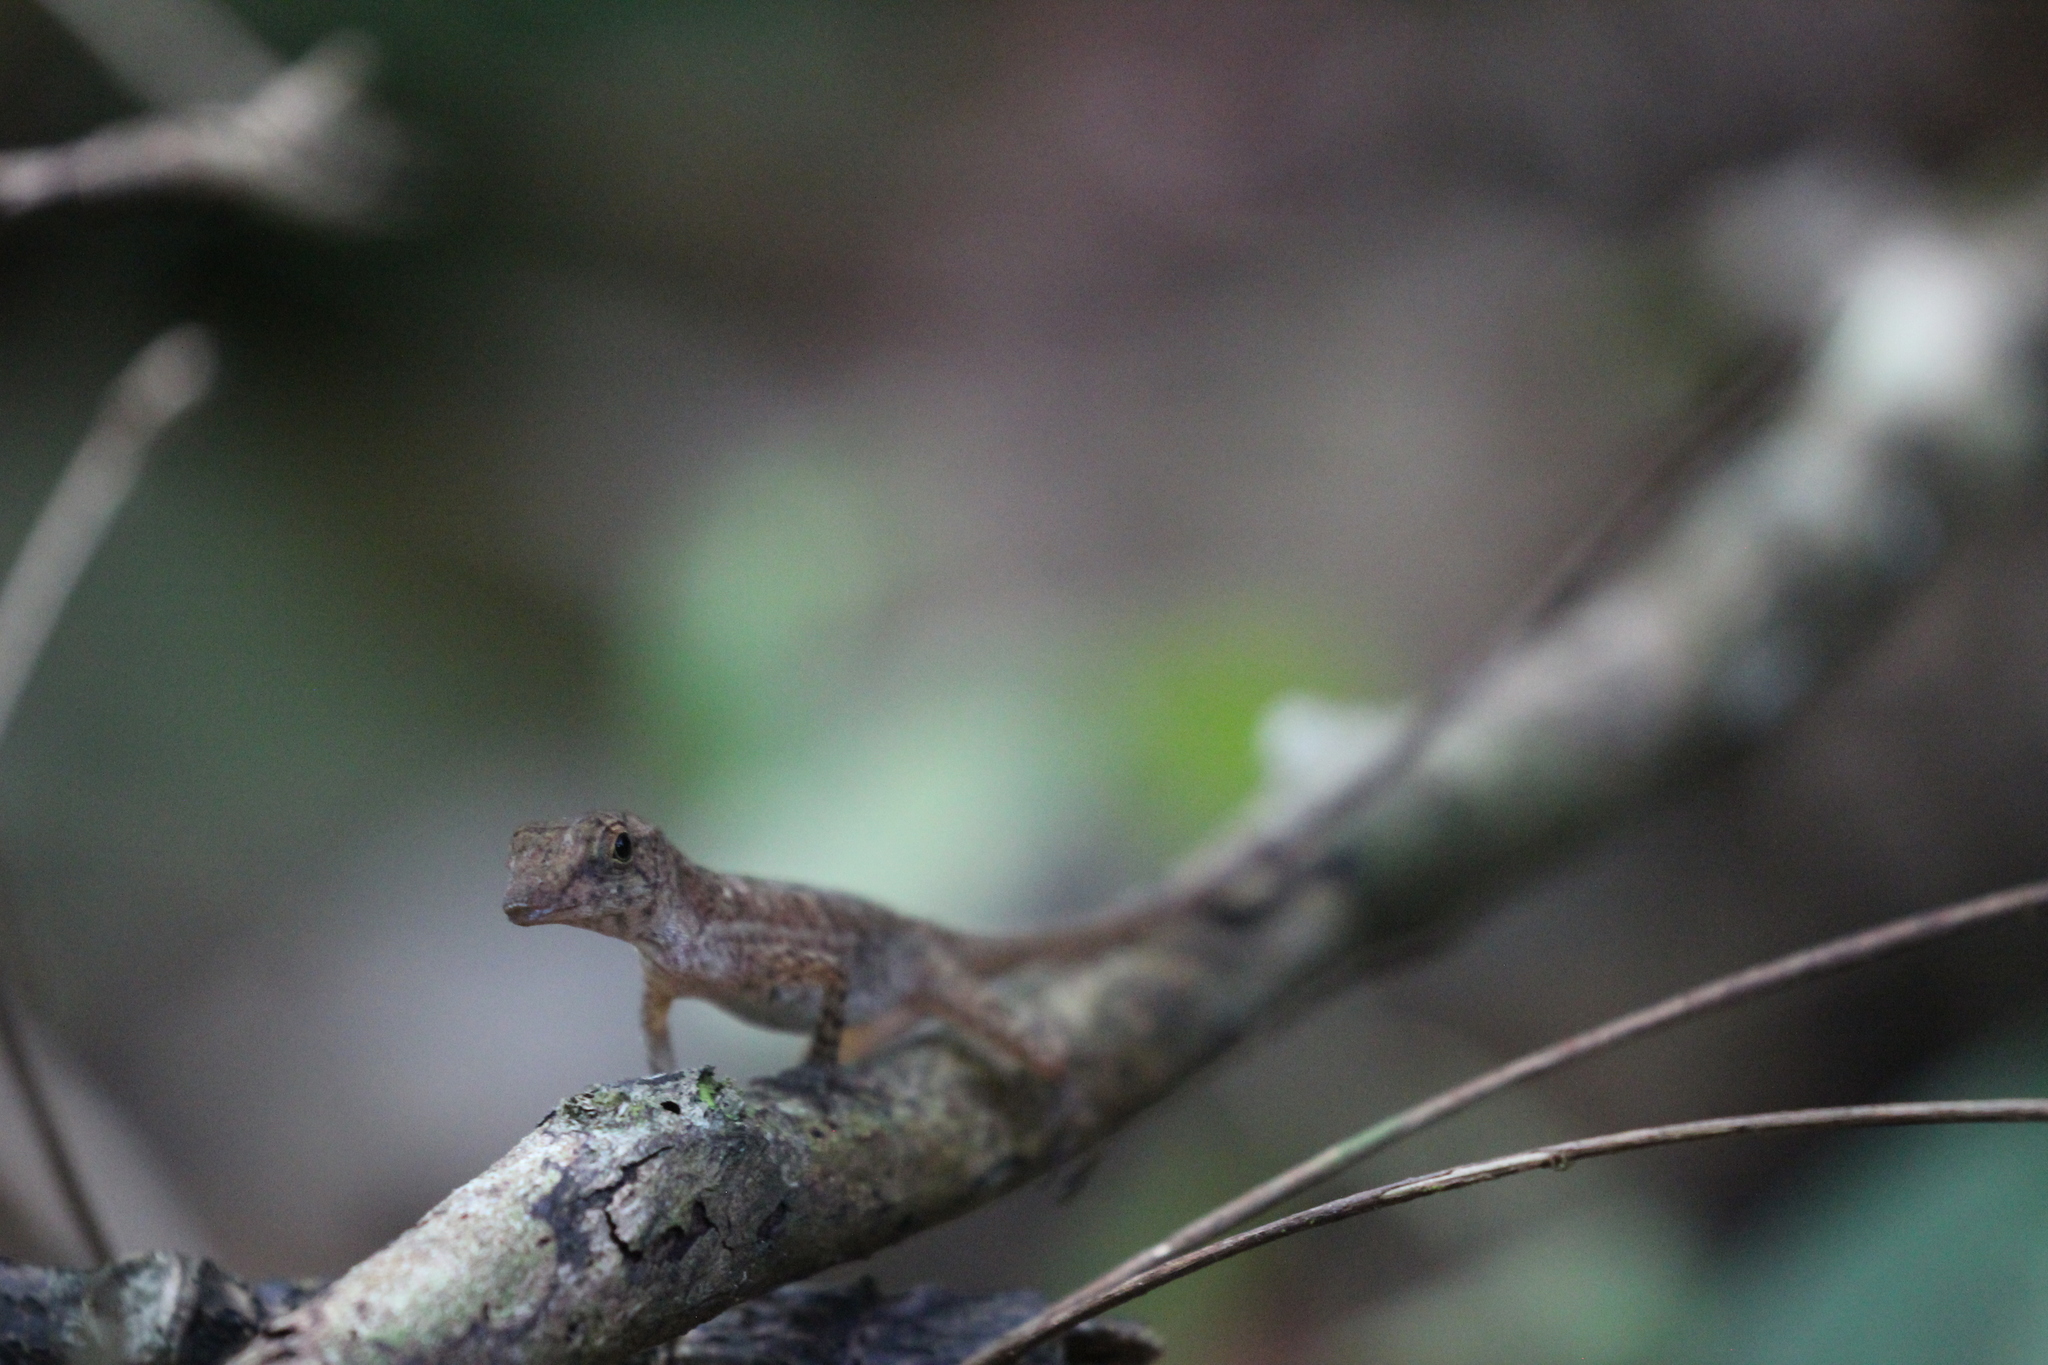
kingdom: Animalia
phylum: Chordata
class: Squamata
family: Dactyloidae
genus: Anolis
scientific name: Anolis osa
